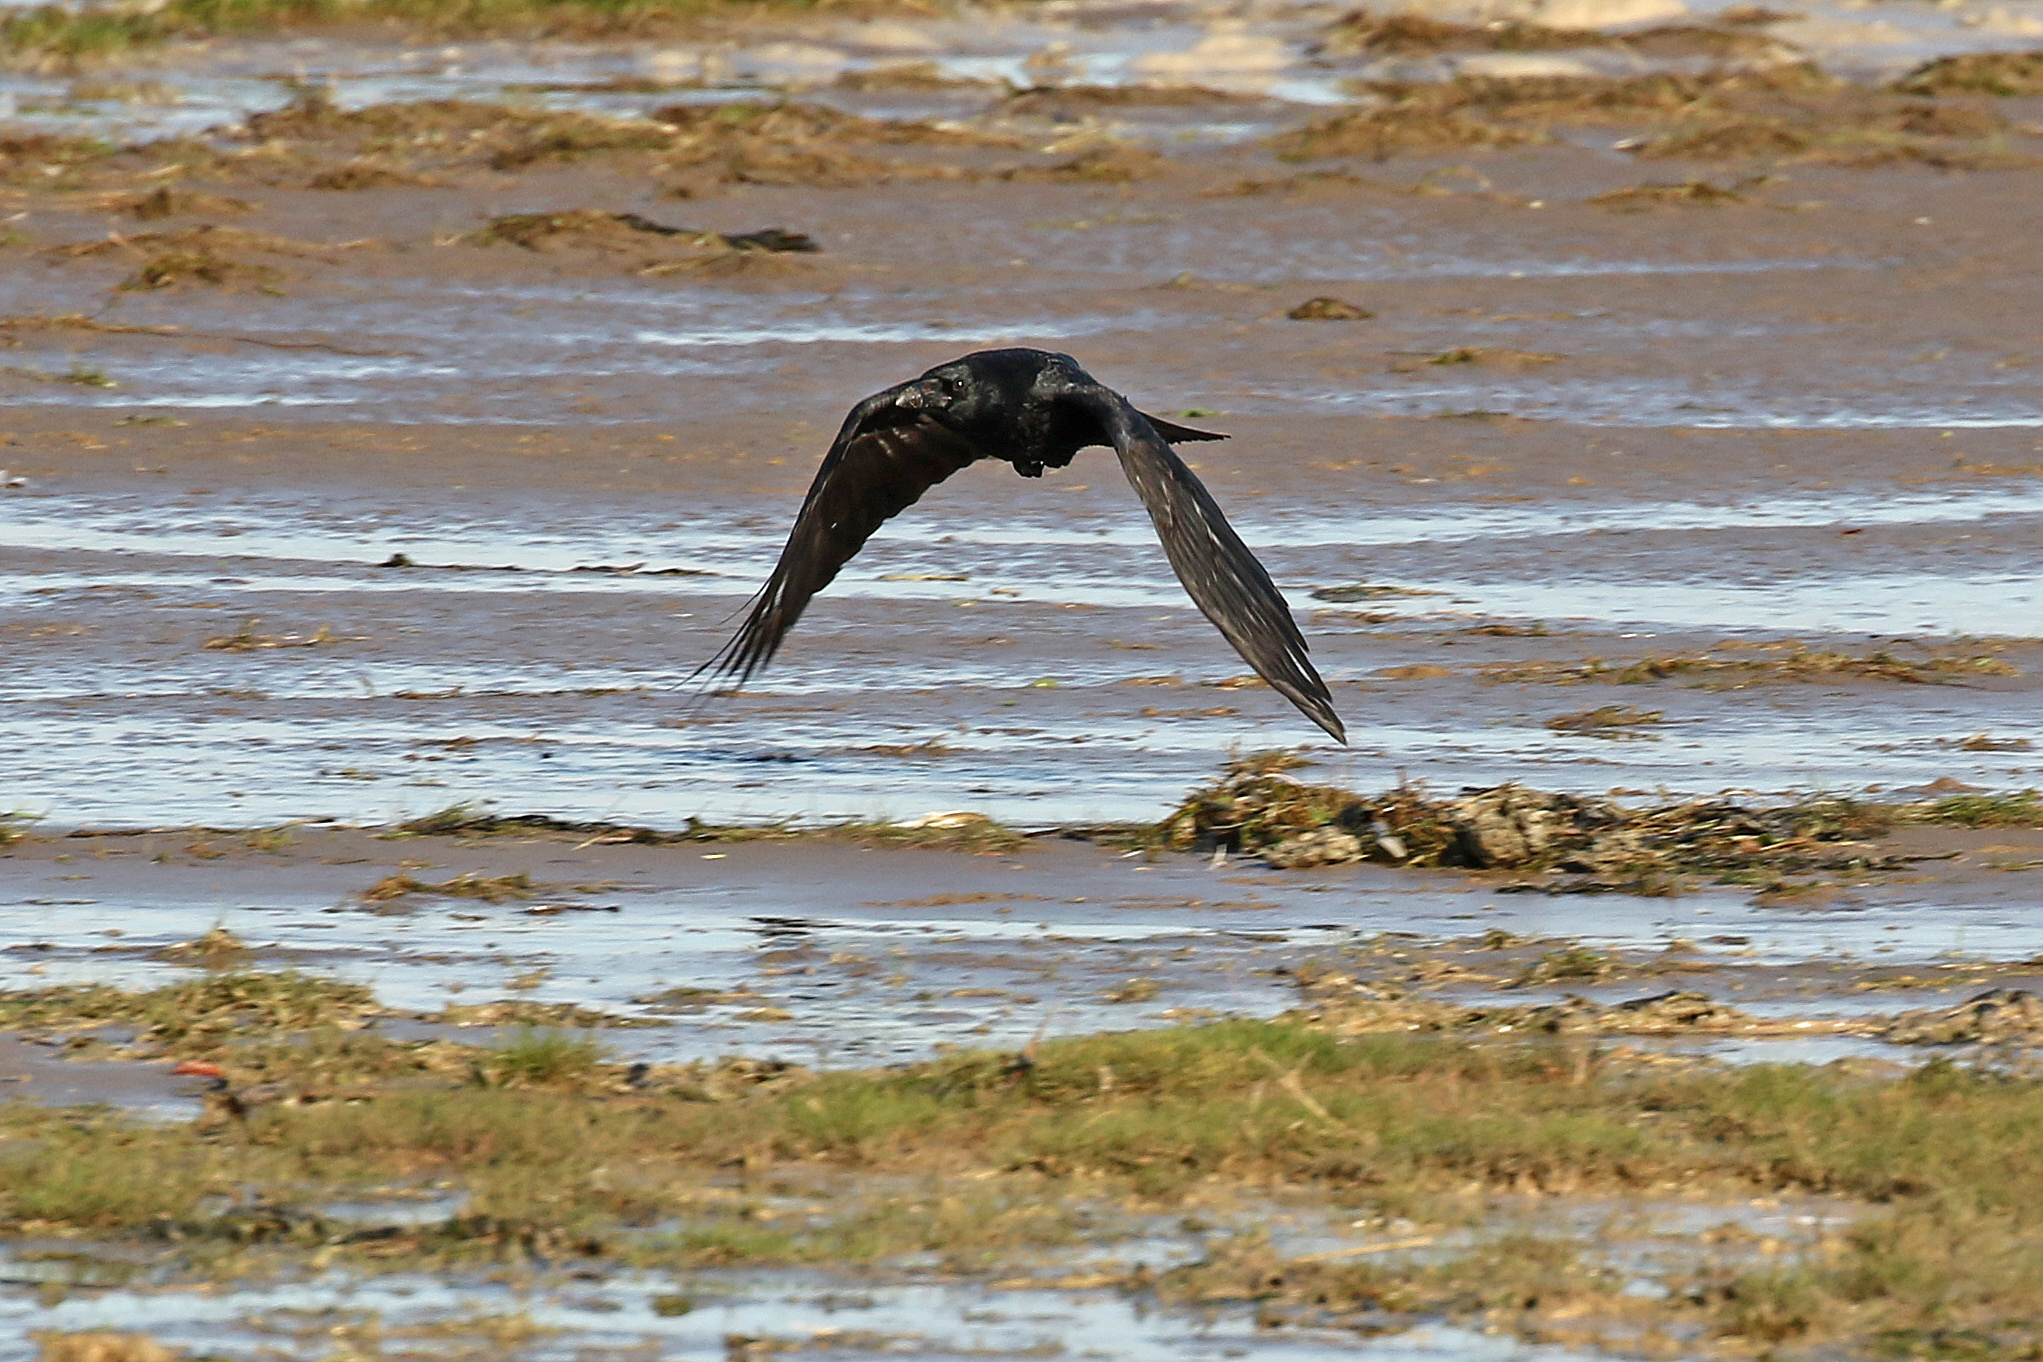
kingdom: Animalia
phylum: Chordata
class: Aves
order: Passeriformes
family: Corvidae
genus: Corvus
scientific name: Corvus corone
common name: Carrion crow
